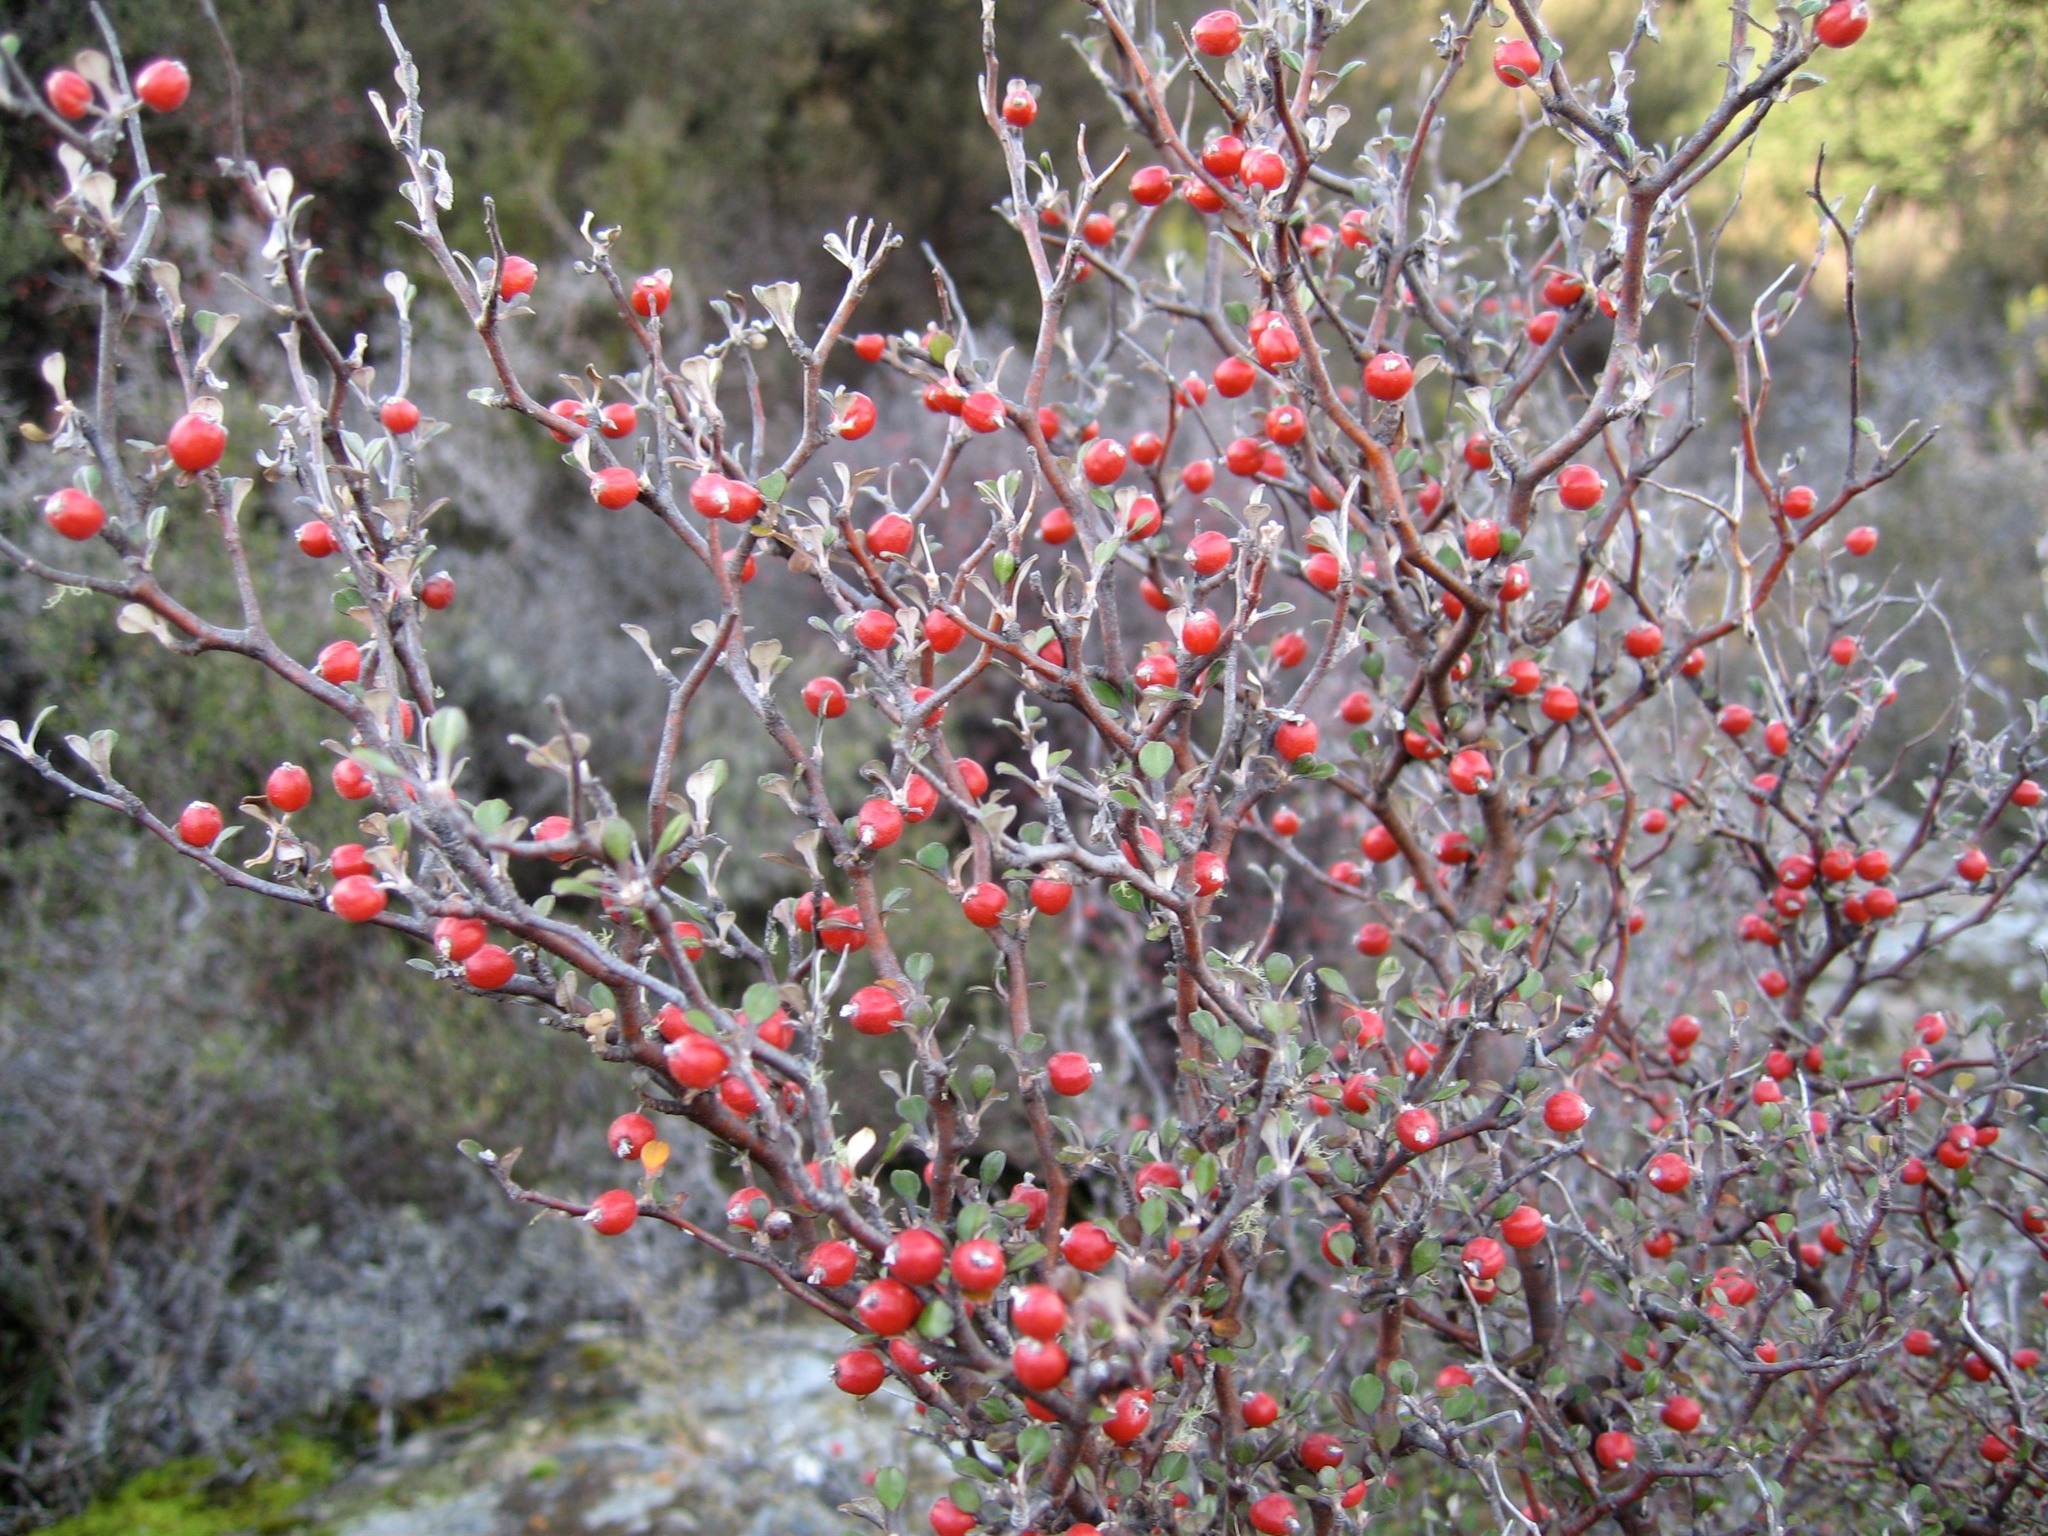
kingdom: Plantae
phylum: Tracheophyta
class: Magnoliopsida
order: Asterales
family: Argophyllaceae
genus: Corokia
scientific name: Corokia cotoneaster
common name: Wire nettingbush
